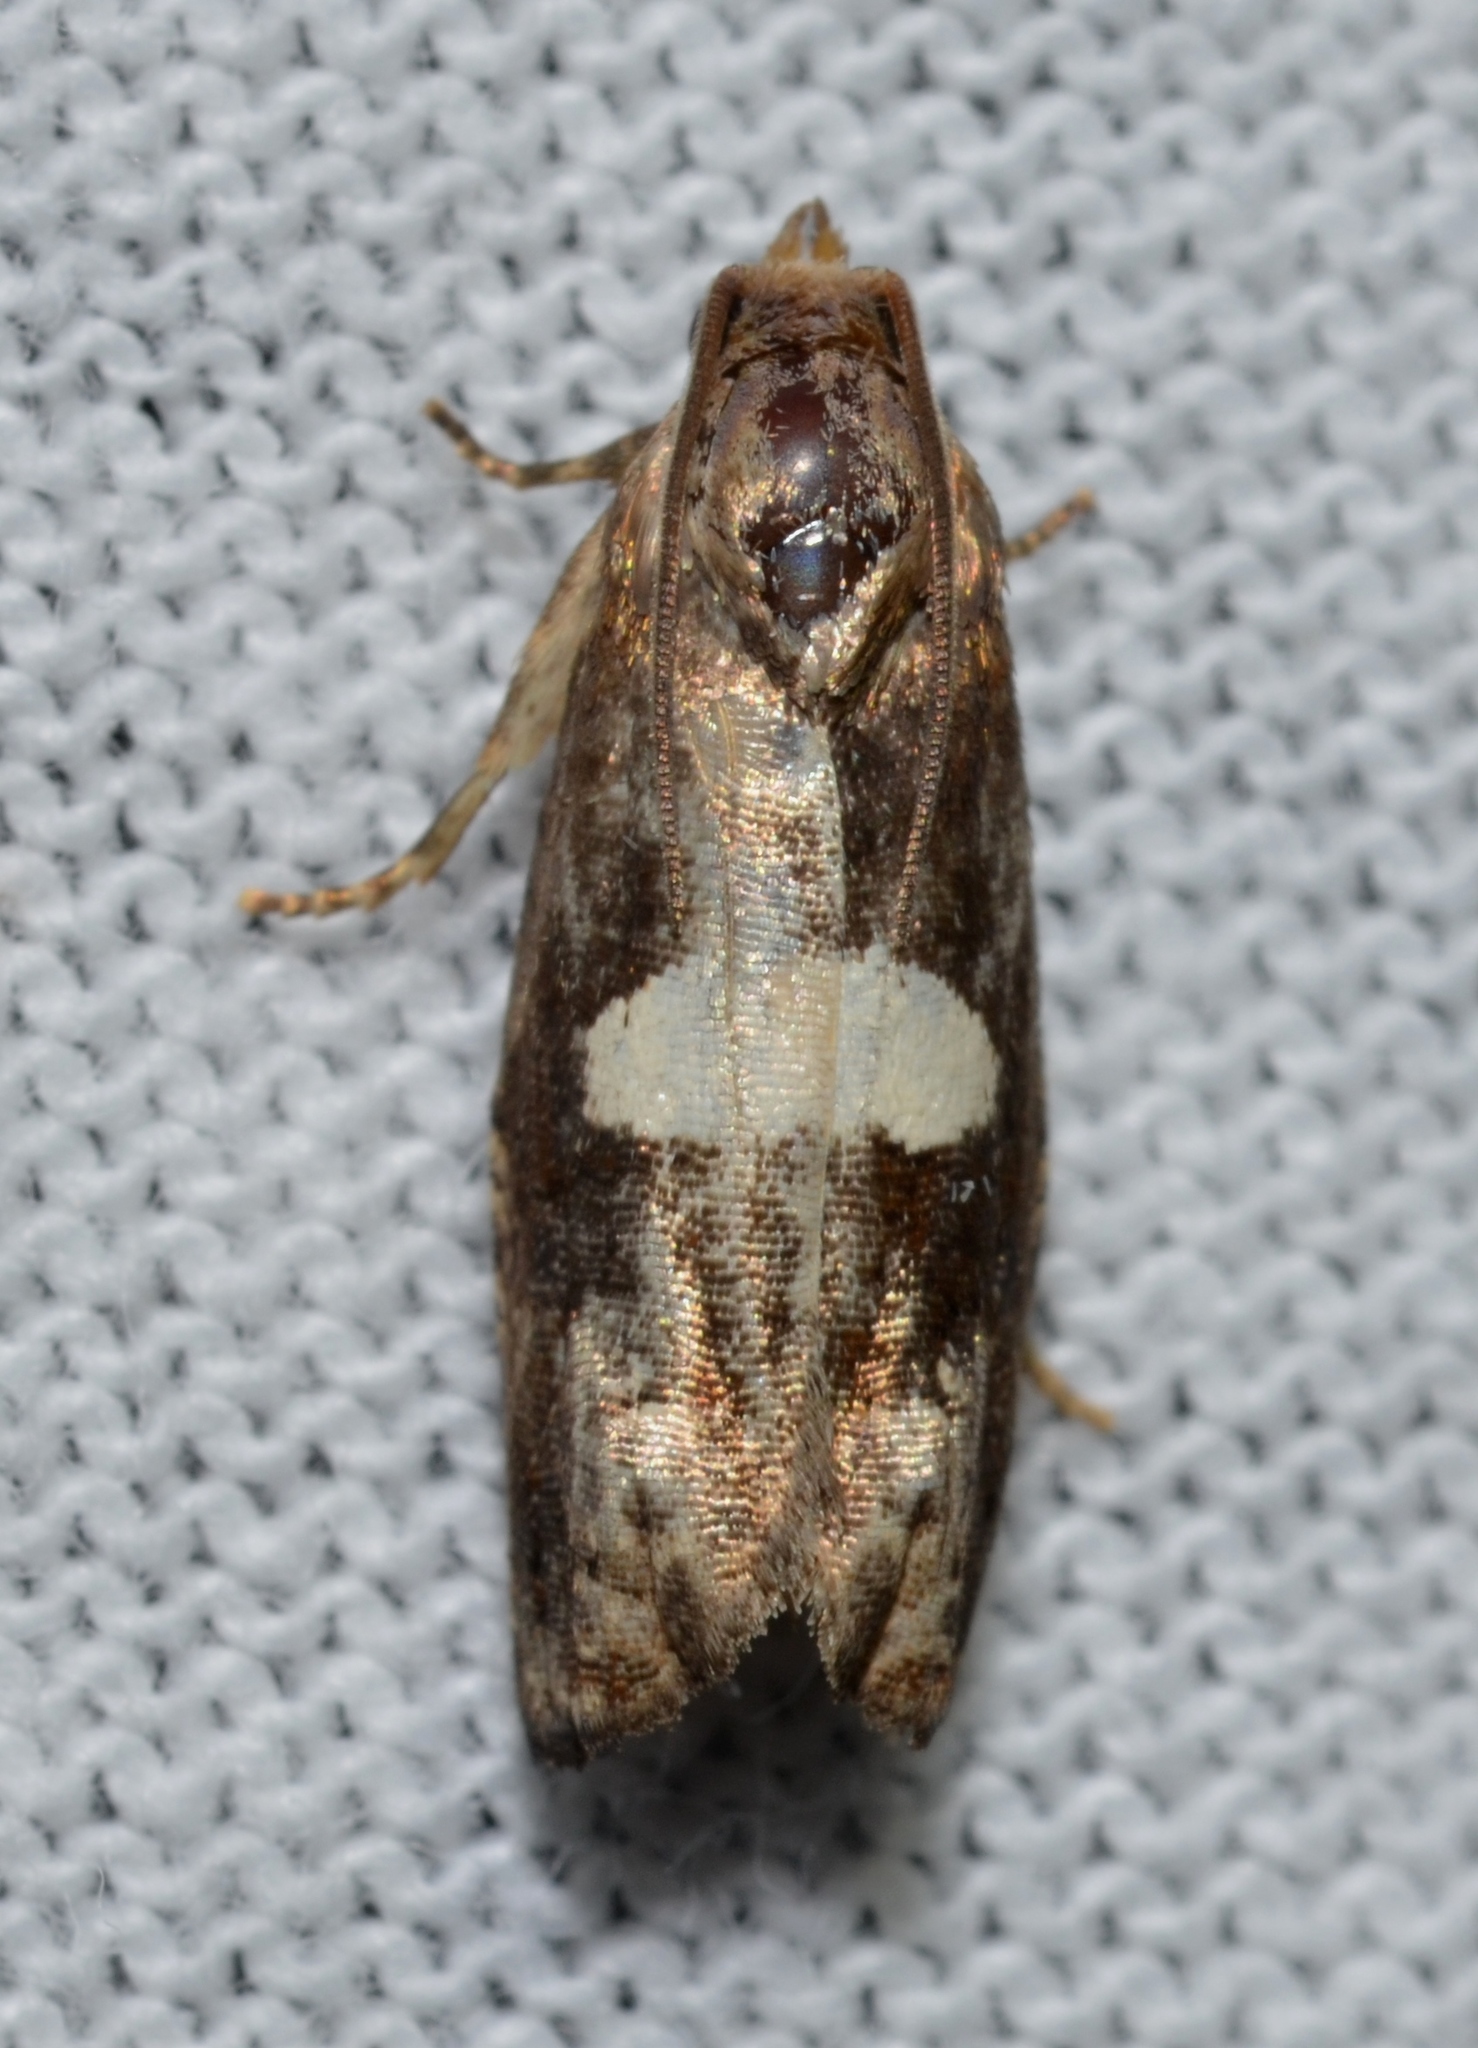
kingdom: Animalia
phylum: Arthropoda
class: Insecta
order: Lepidoptera
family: Tortricidae
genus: Epiblema
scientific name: Epiblema gibsoni
